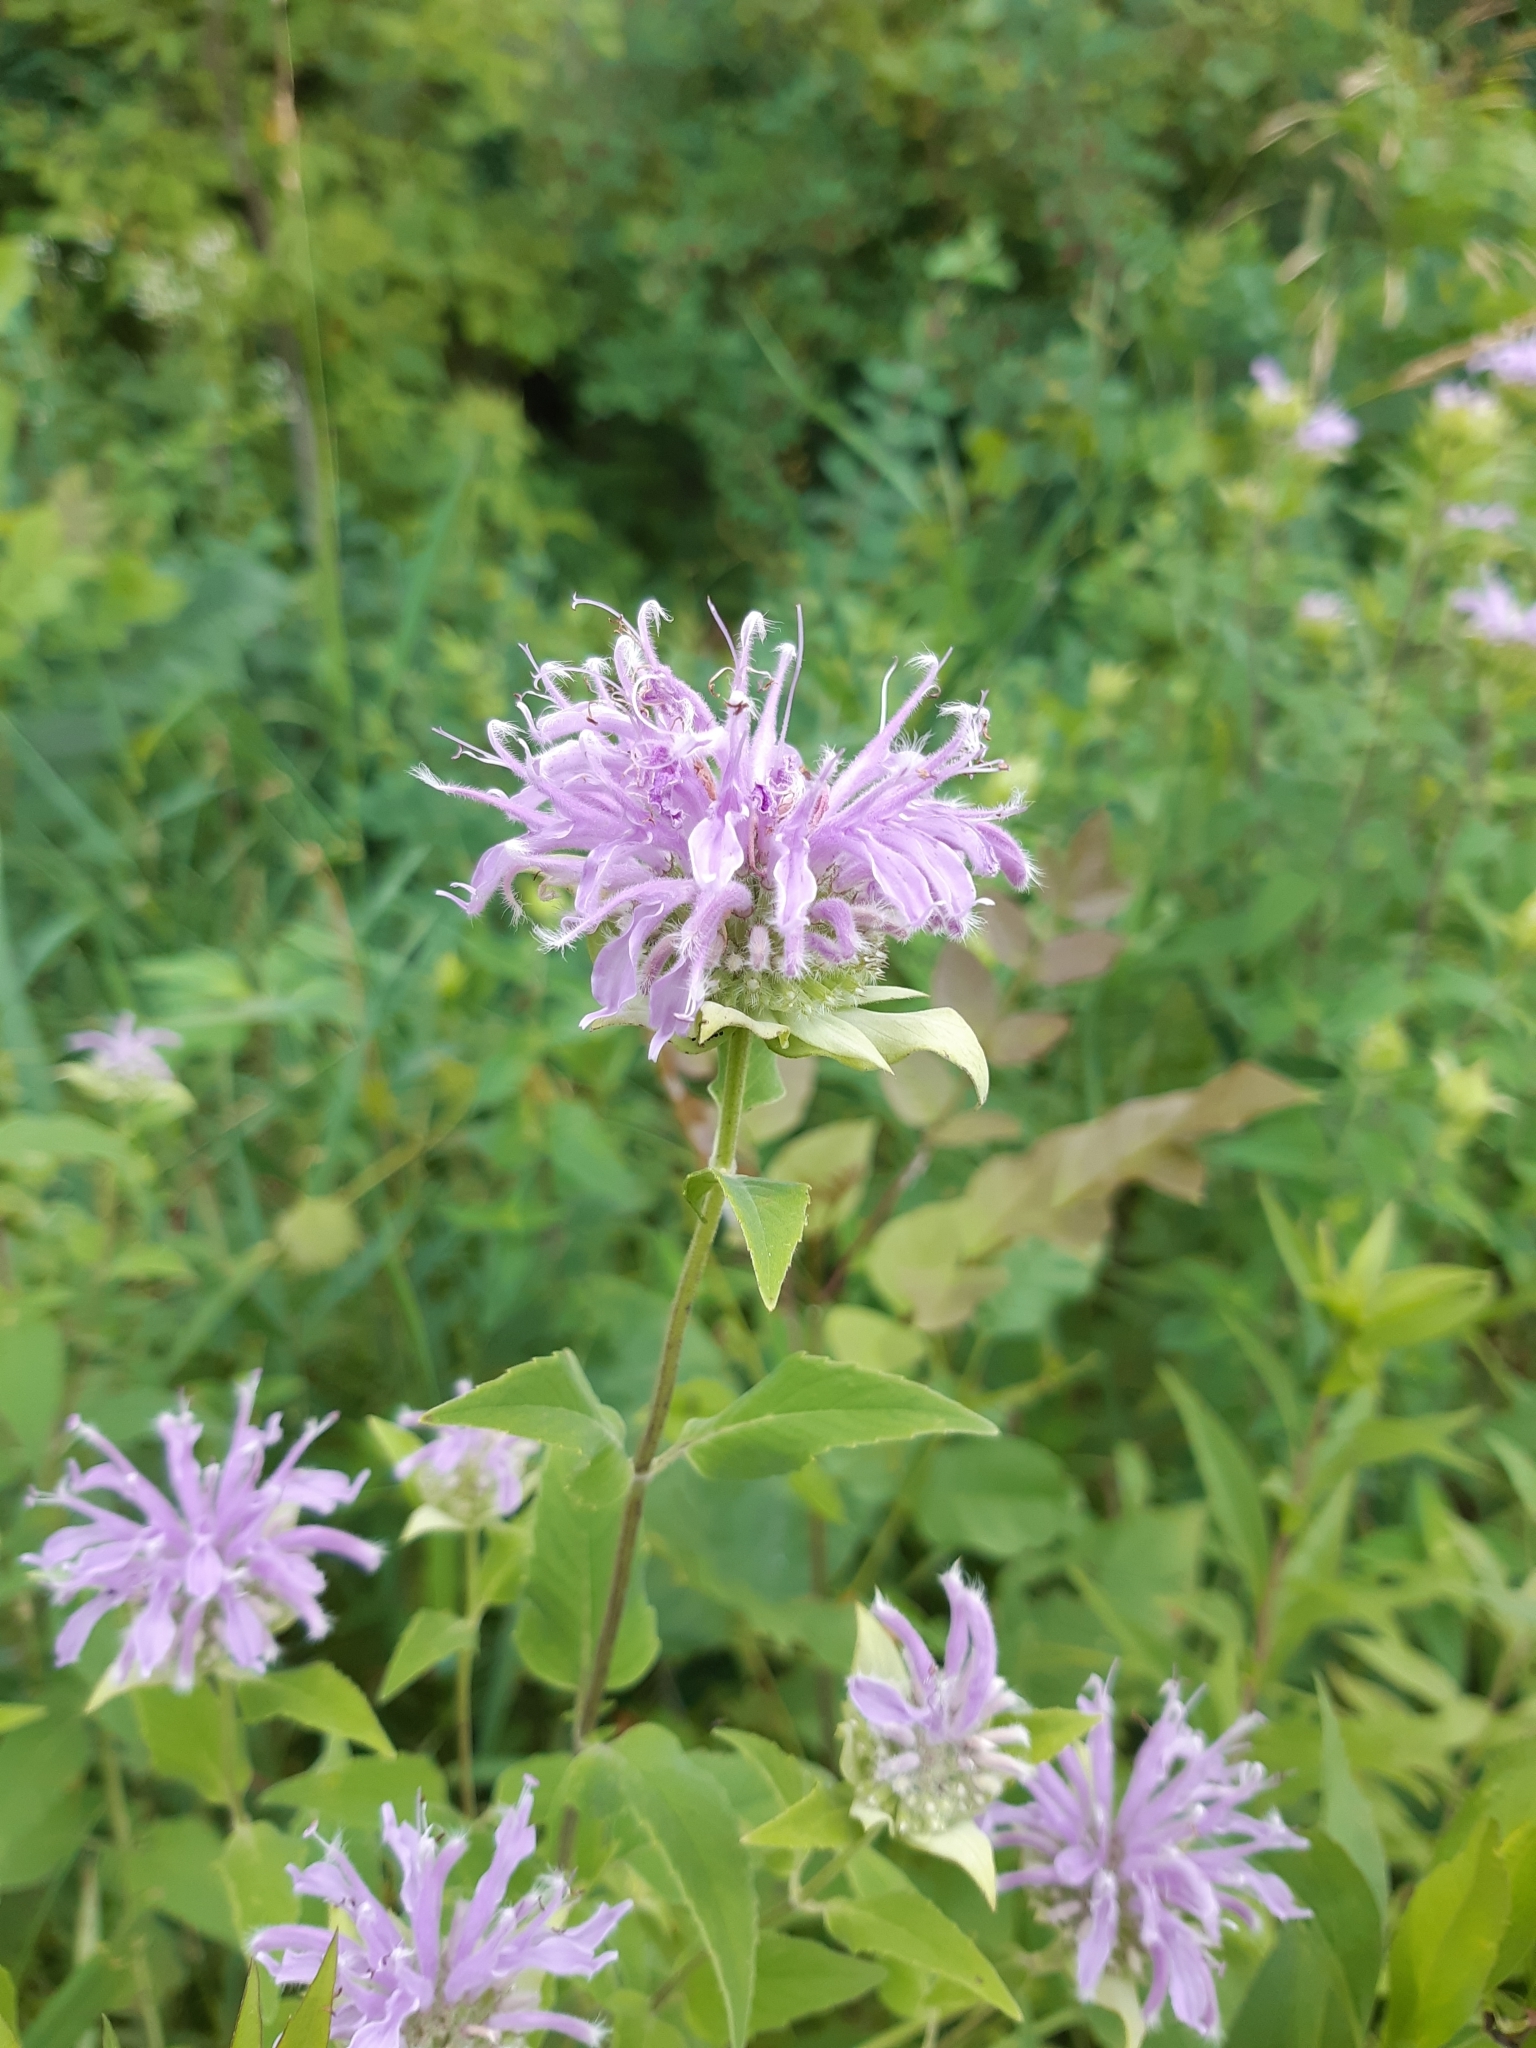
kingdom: Plantae
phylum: Tracheophyta
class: Magnoliopsida
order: Lamiales
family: Lamiaceae
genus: Monarda
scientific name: Monarda fistulosa
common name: Purple beebalm
